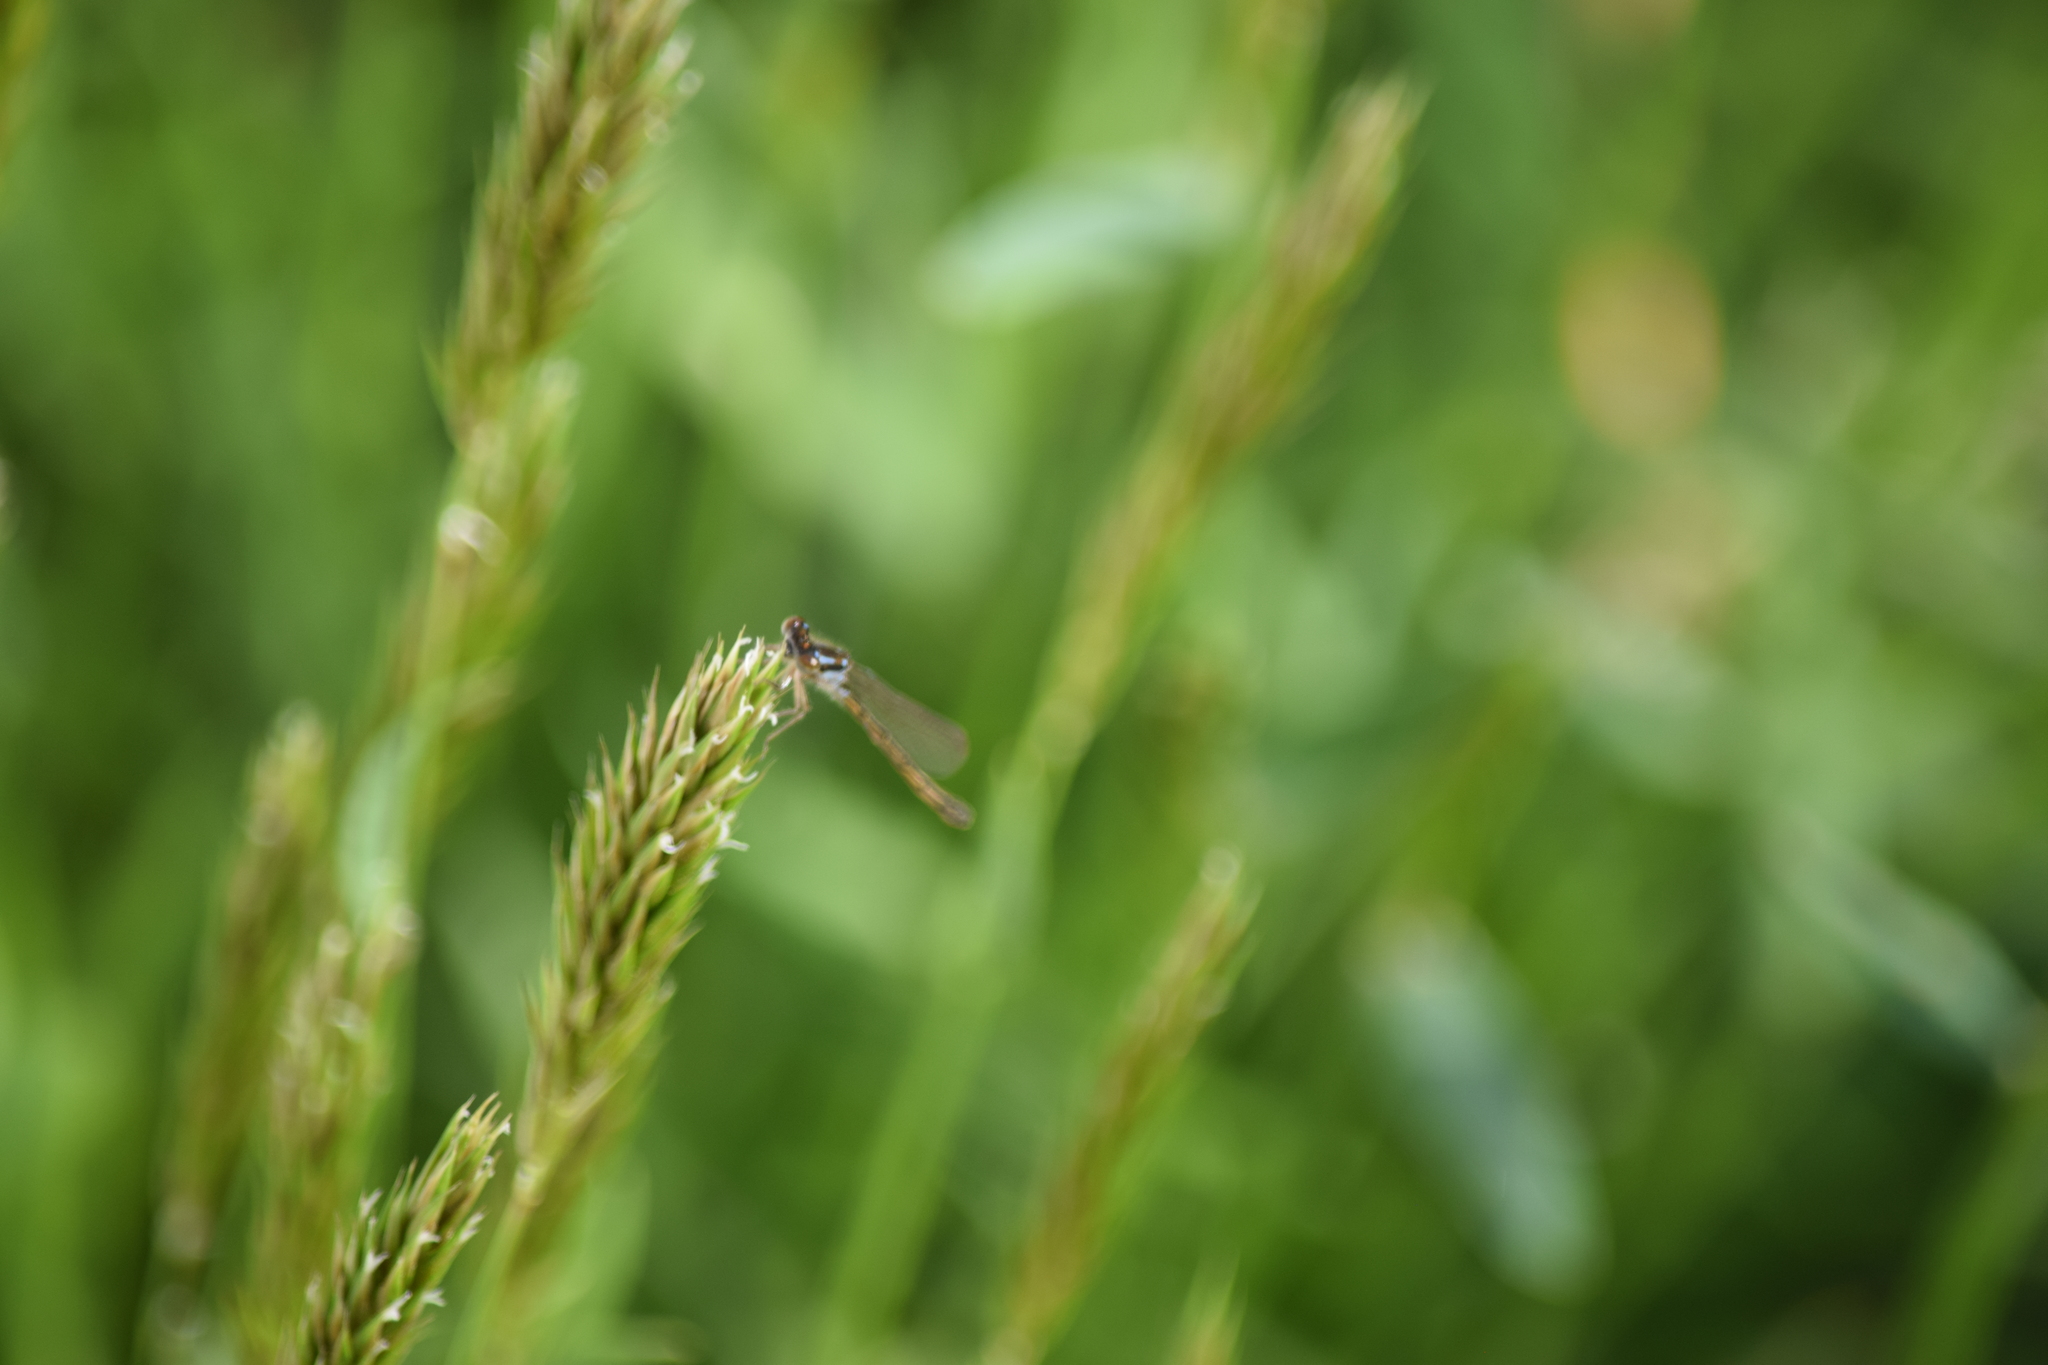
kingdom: Animalia
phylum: Arthropoda
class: Insecta
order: Odonata
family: Coenagrionidae
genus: Ischnura
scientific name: Ischnura posita
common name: Fragile forktail
